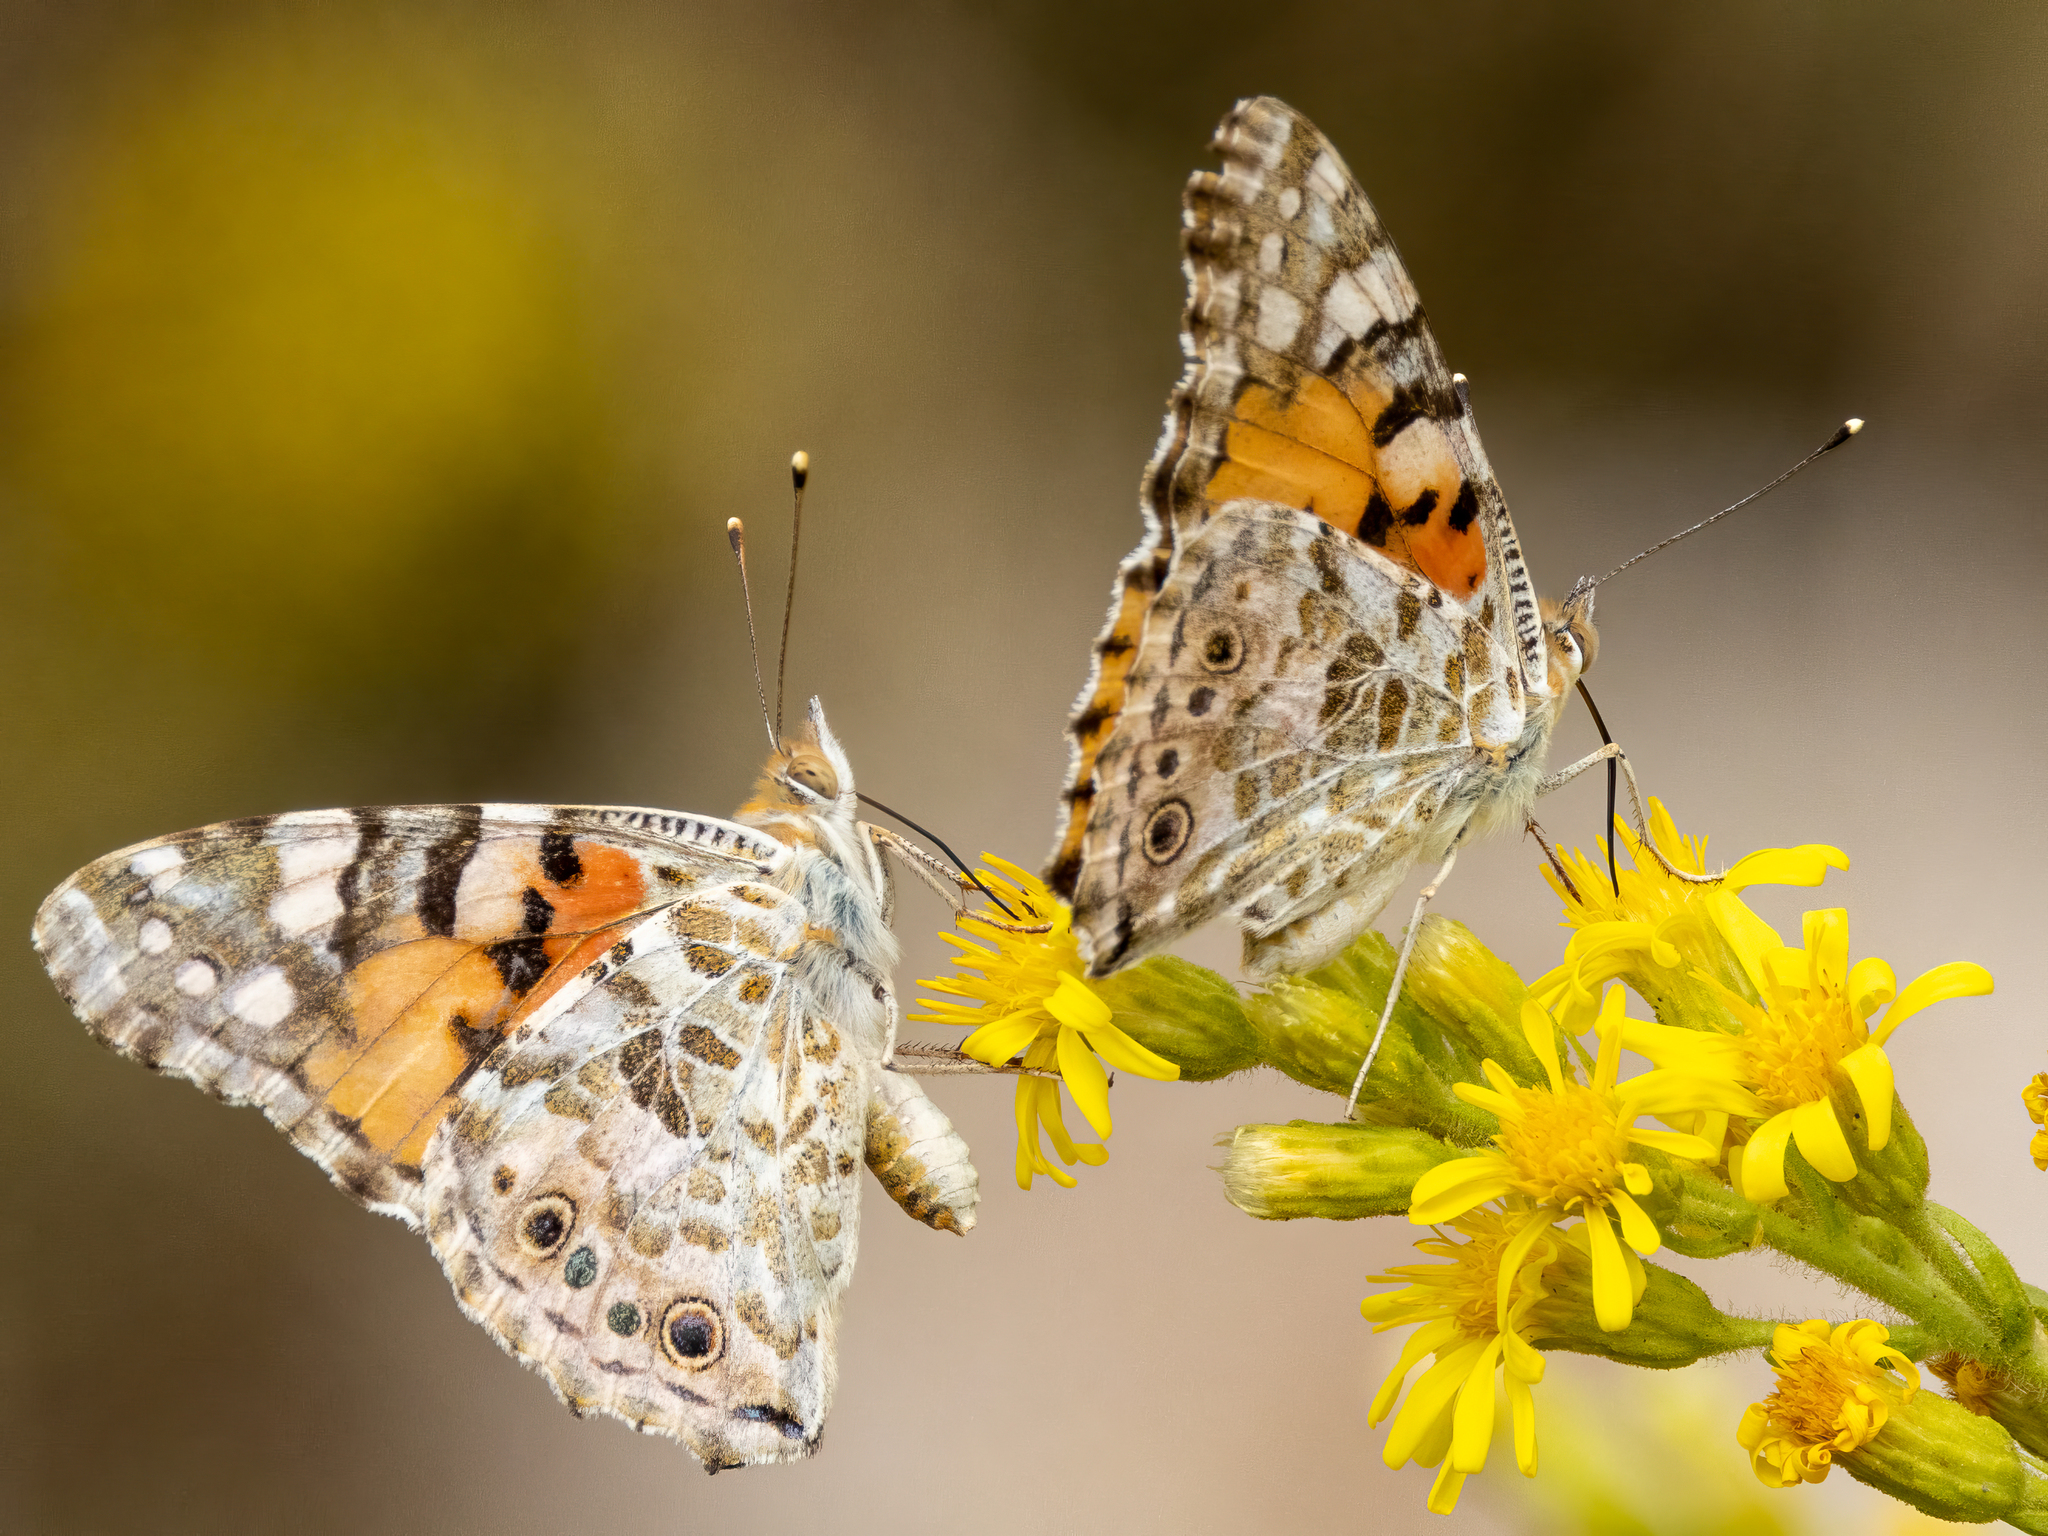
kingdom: Animalia
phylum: Arthropoda
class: Insecta
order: Lepidoptera
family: Nymphalidae
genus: Vanessa
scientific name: Vanessa cardui
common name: Painted lady
